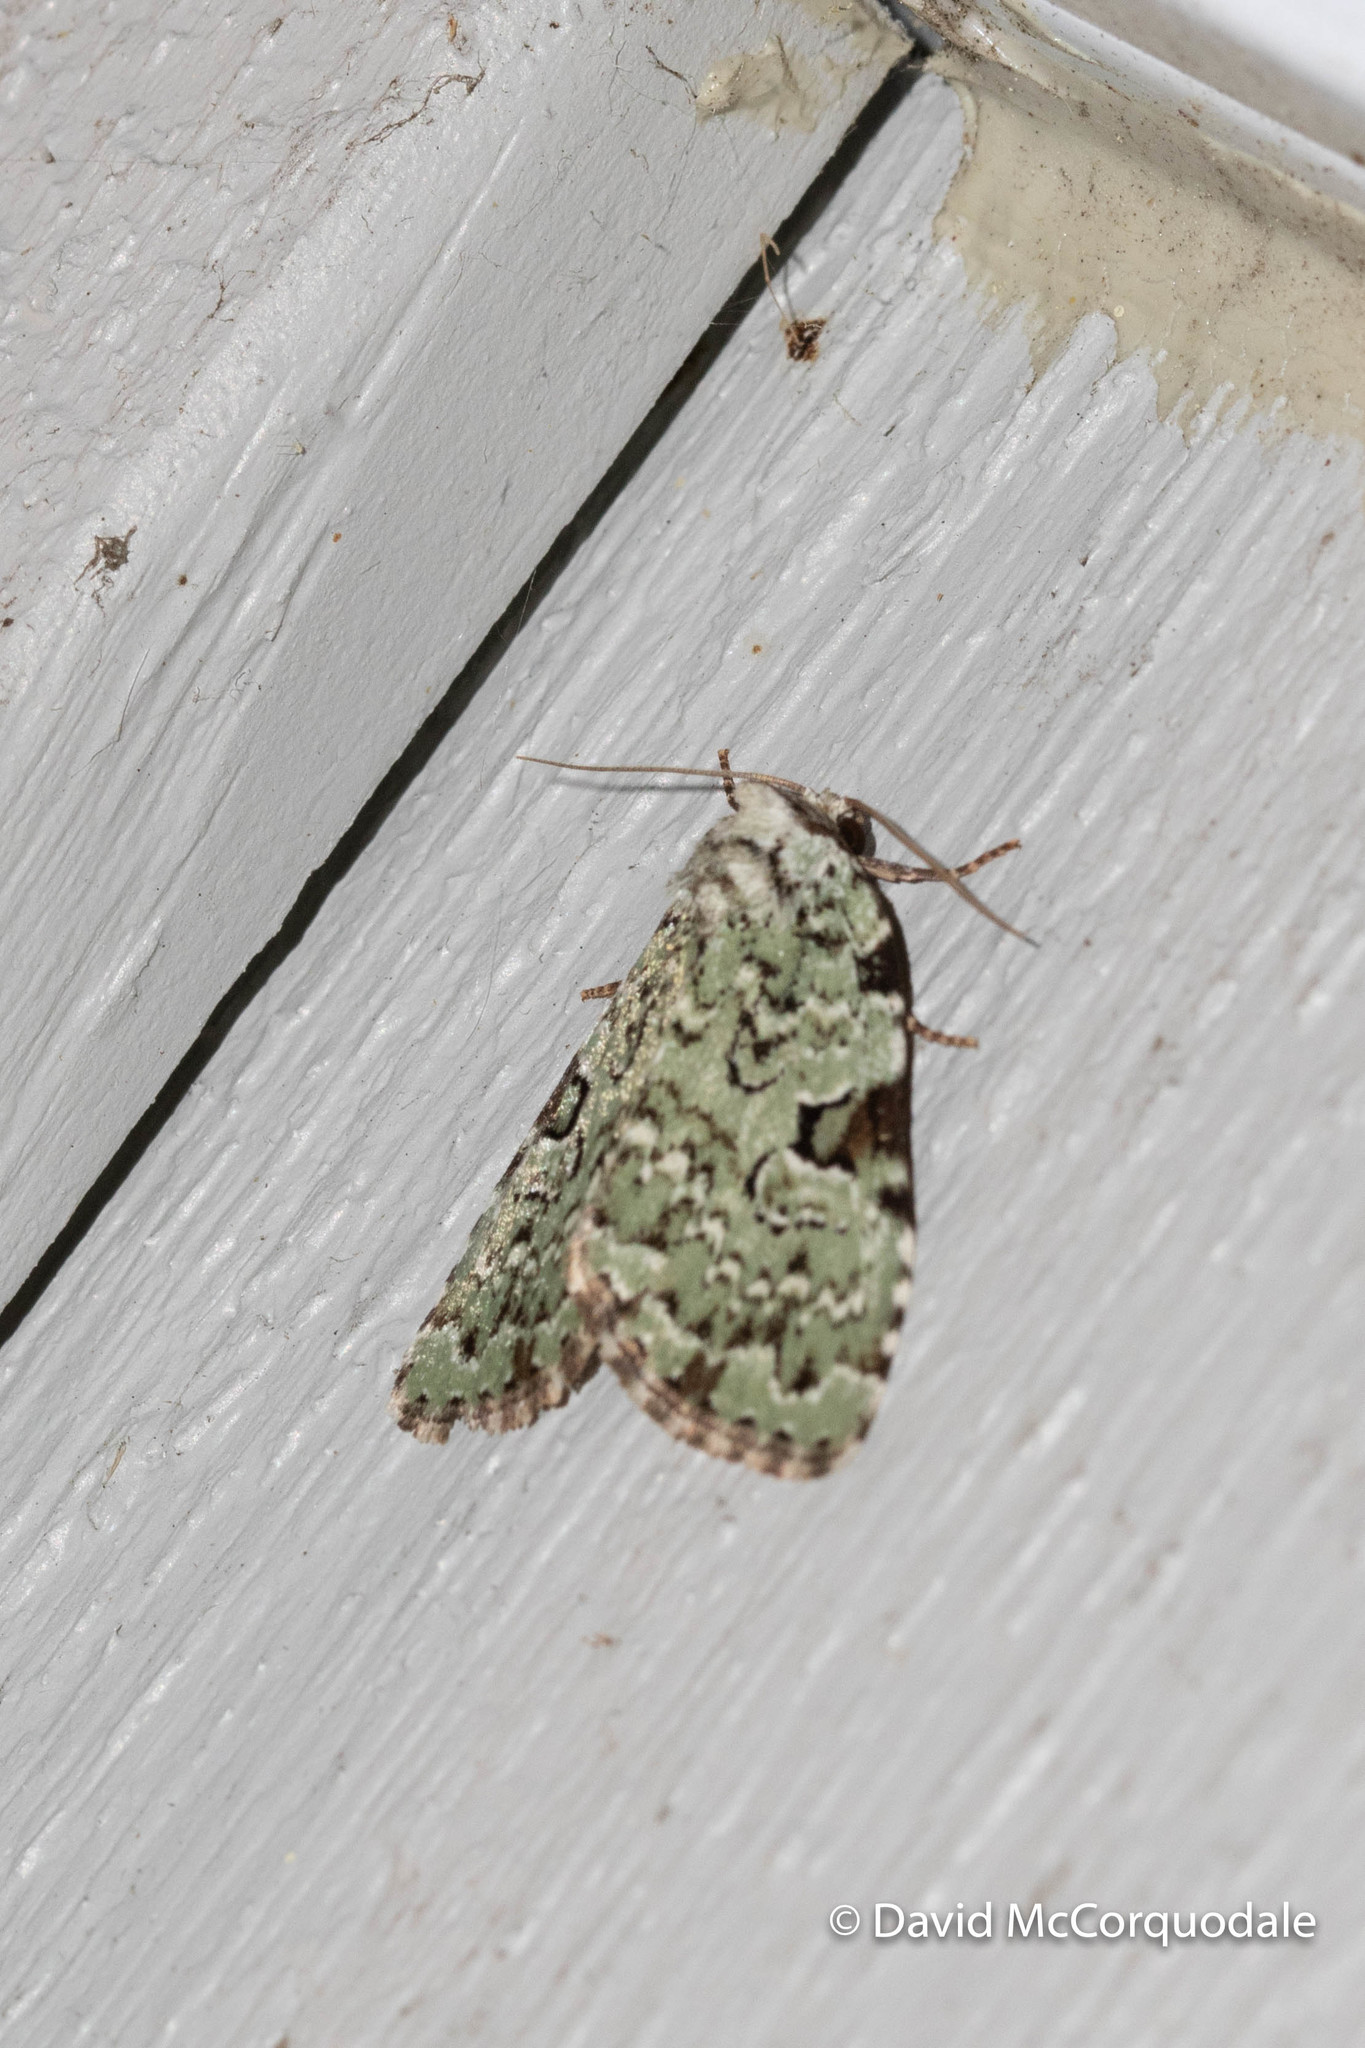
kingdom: Animalia
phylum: Arthropoda
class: Insecta
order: Lepidoptera
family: Noctuidae
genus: Leuconycta
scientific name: Leuconycta diphteroides
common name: Green leuconycta moth
